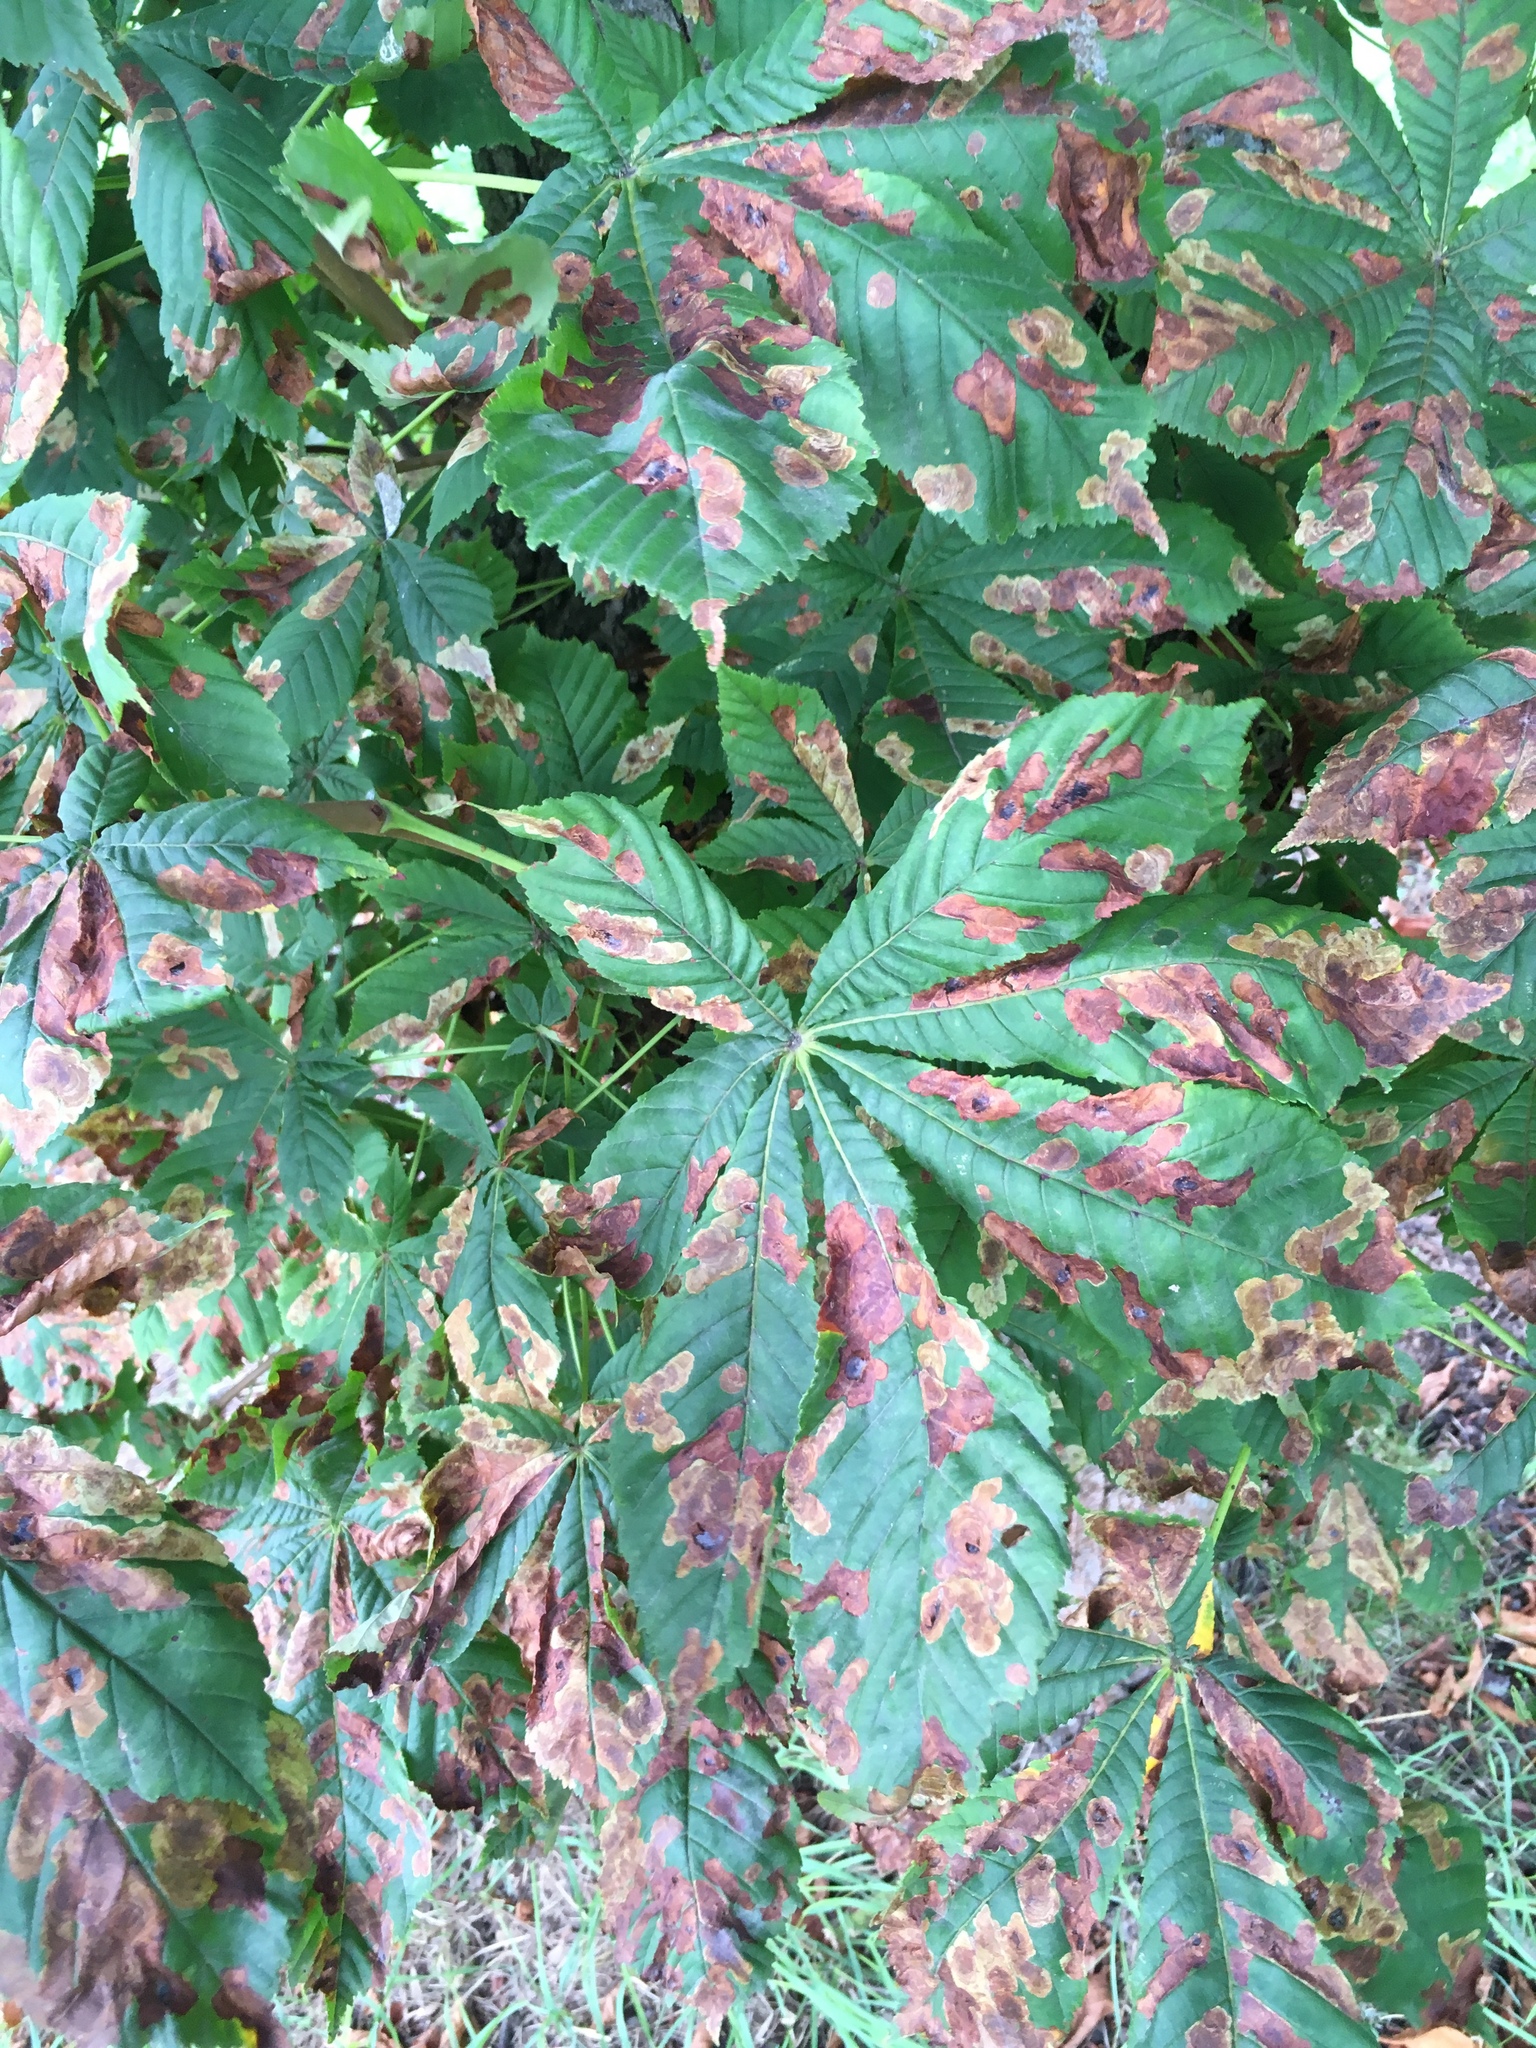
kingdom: Plantae
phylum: Tracheophyta
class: Magnoliopsida
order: Sapindales
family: Sapindaceae
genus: Aesculus
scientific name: Aesculus hippocastanum
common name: Horse-chestnut
